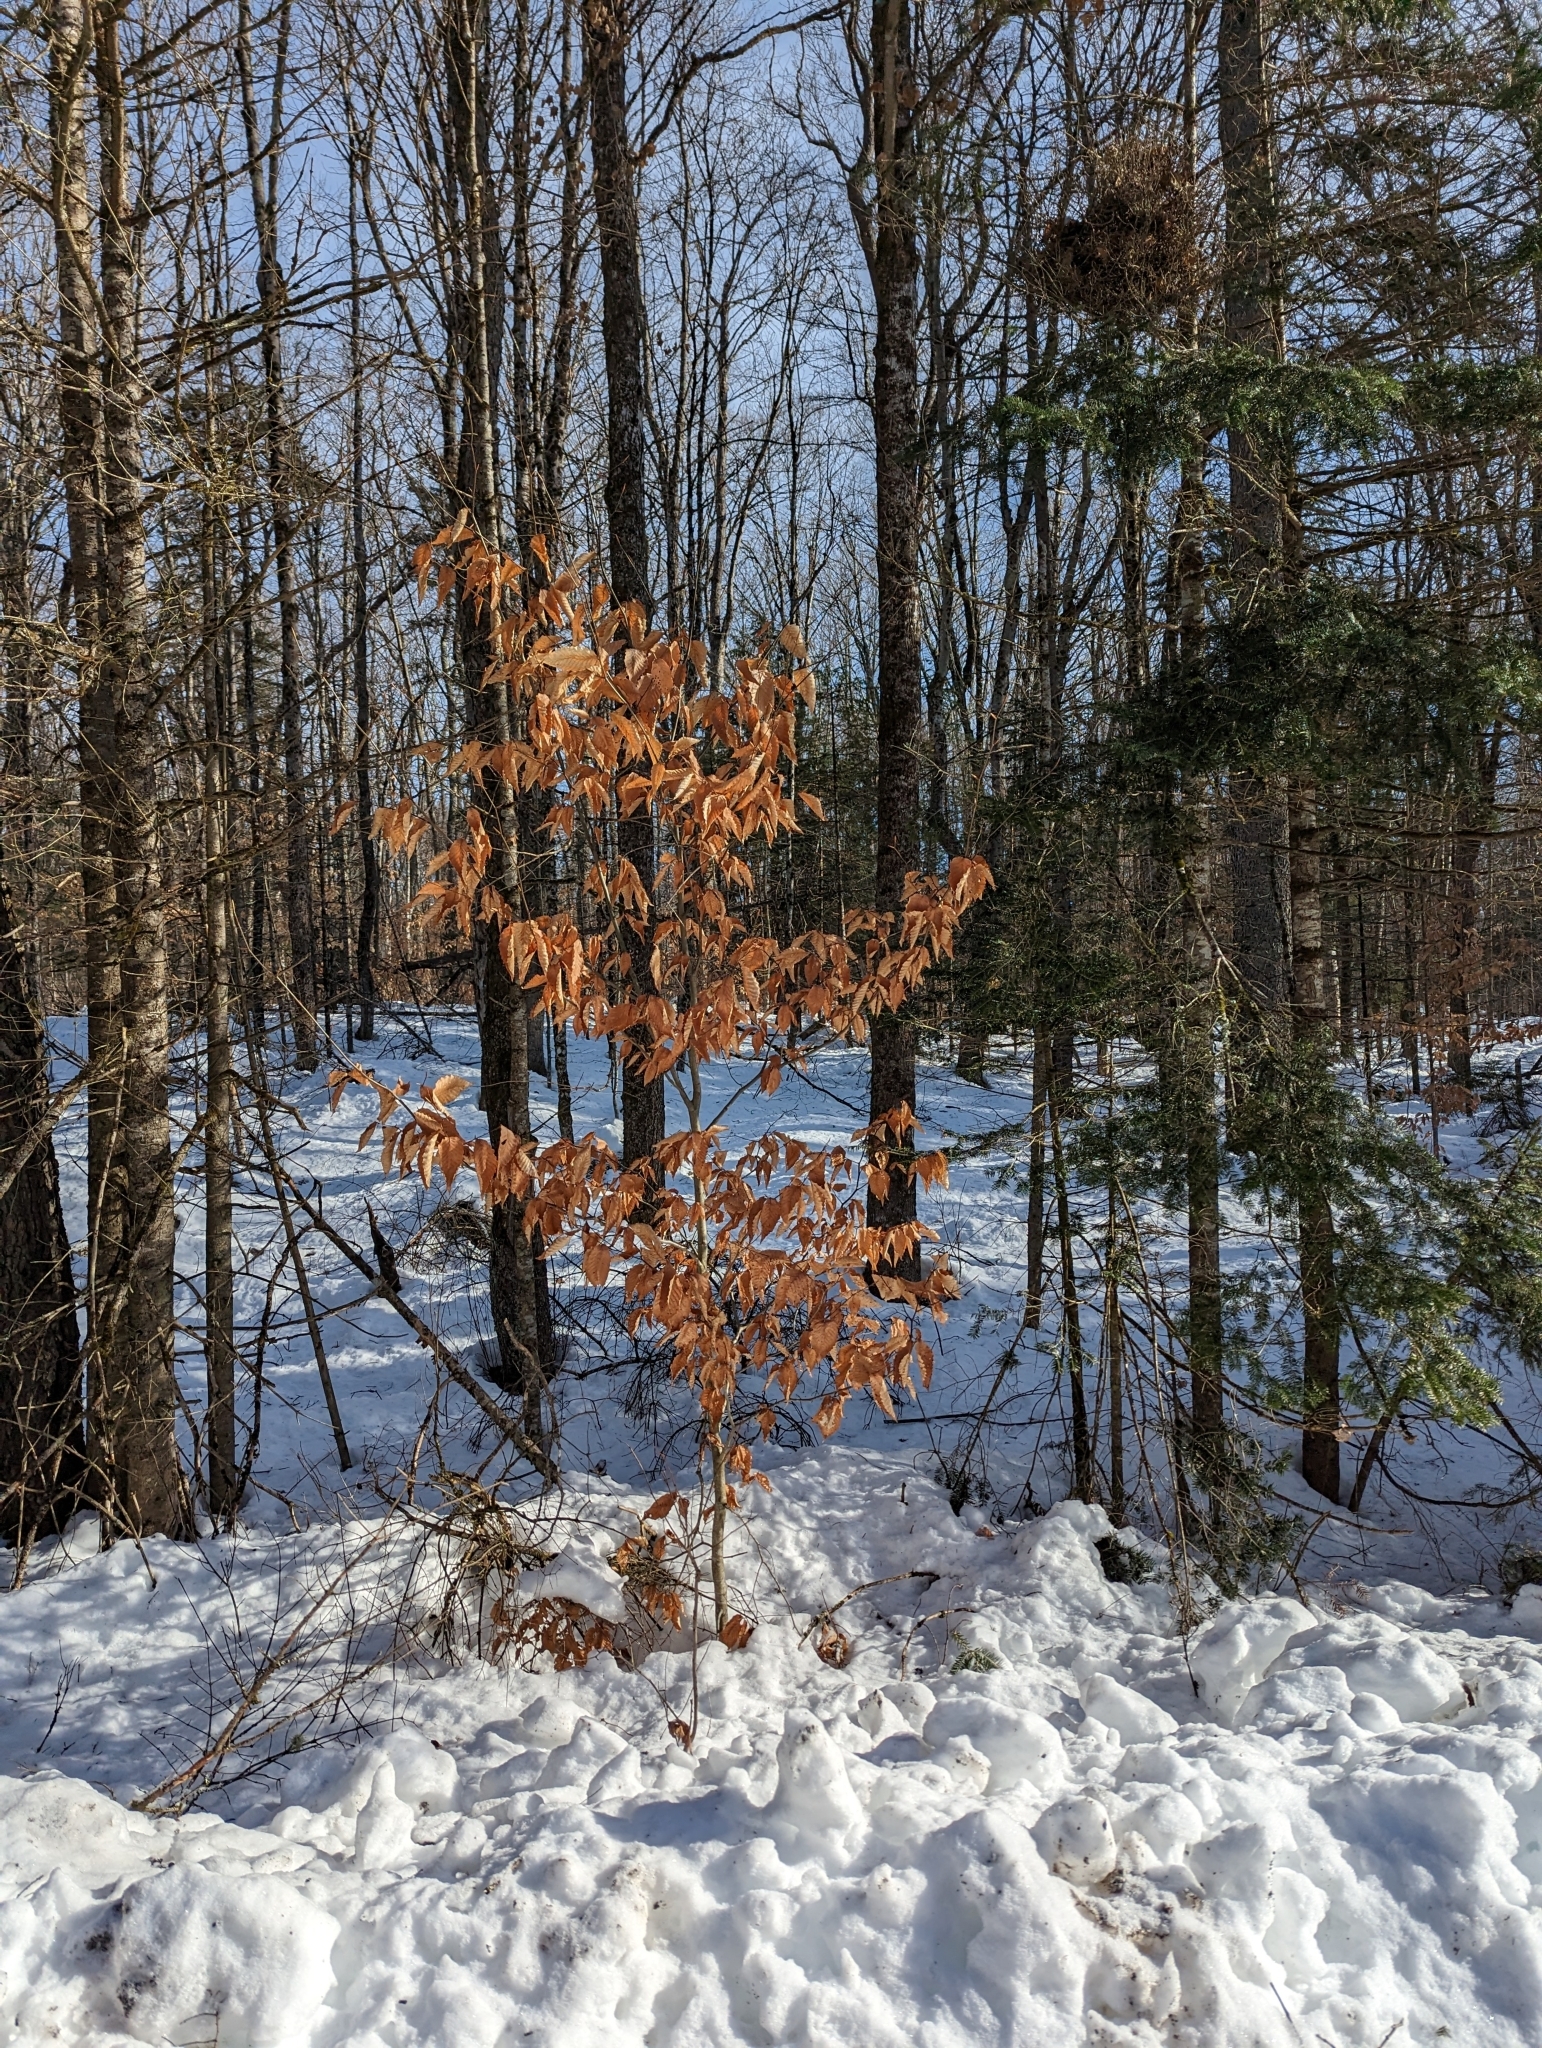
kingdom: Plantae
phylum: Tracheophyta
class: Magnoliopsida
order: Fagales
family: Fagaceae
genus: Fagus
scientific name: Fagus grandifolia
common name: American beech
